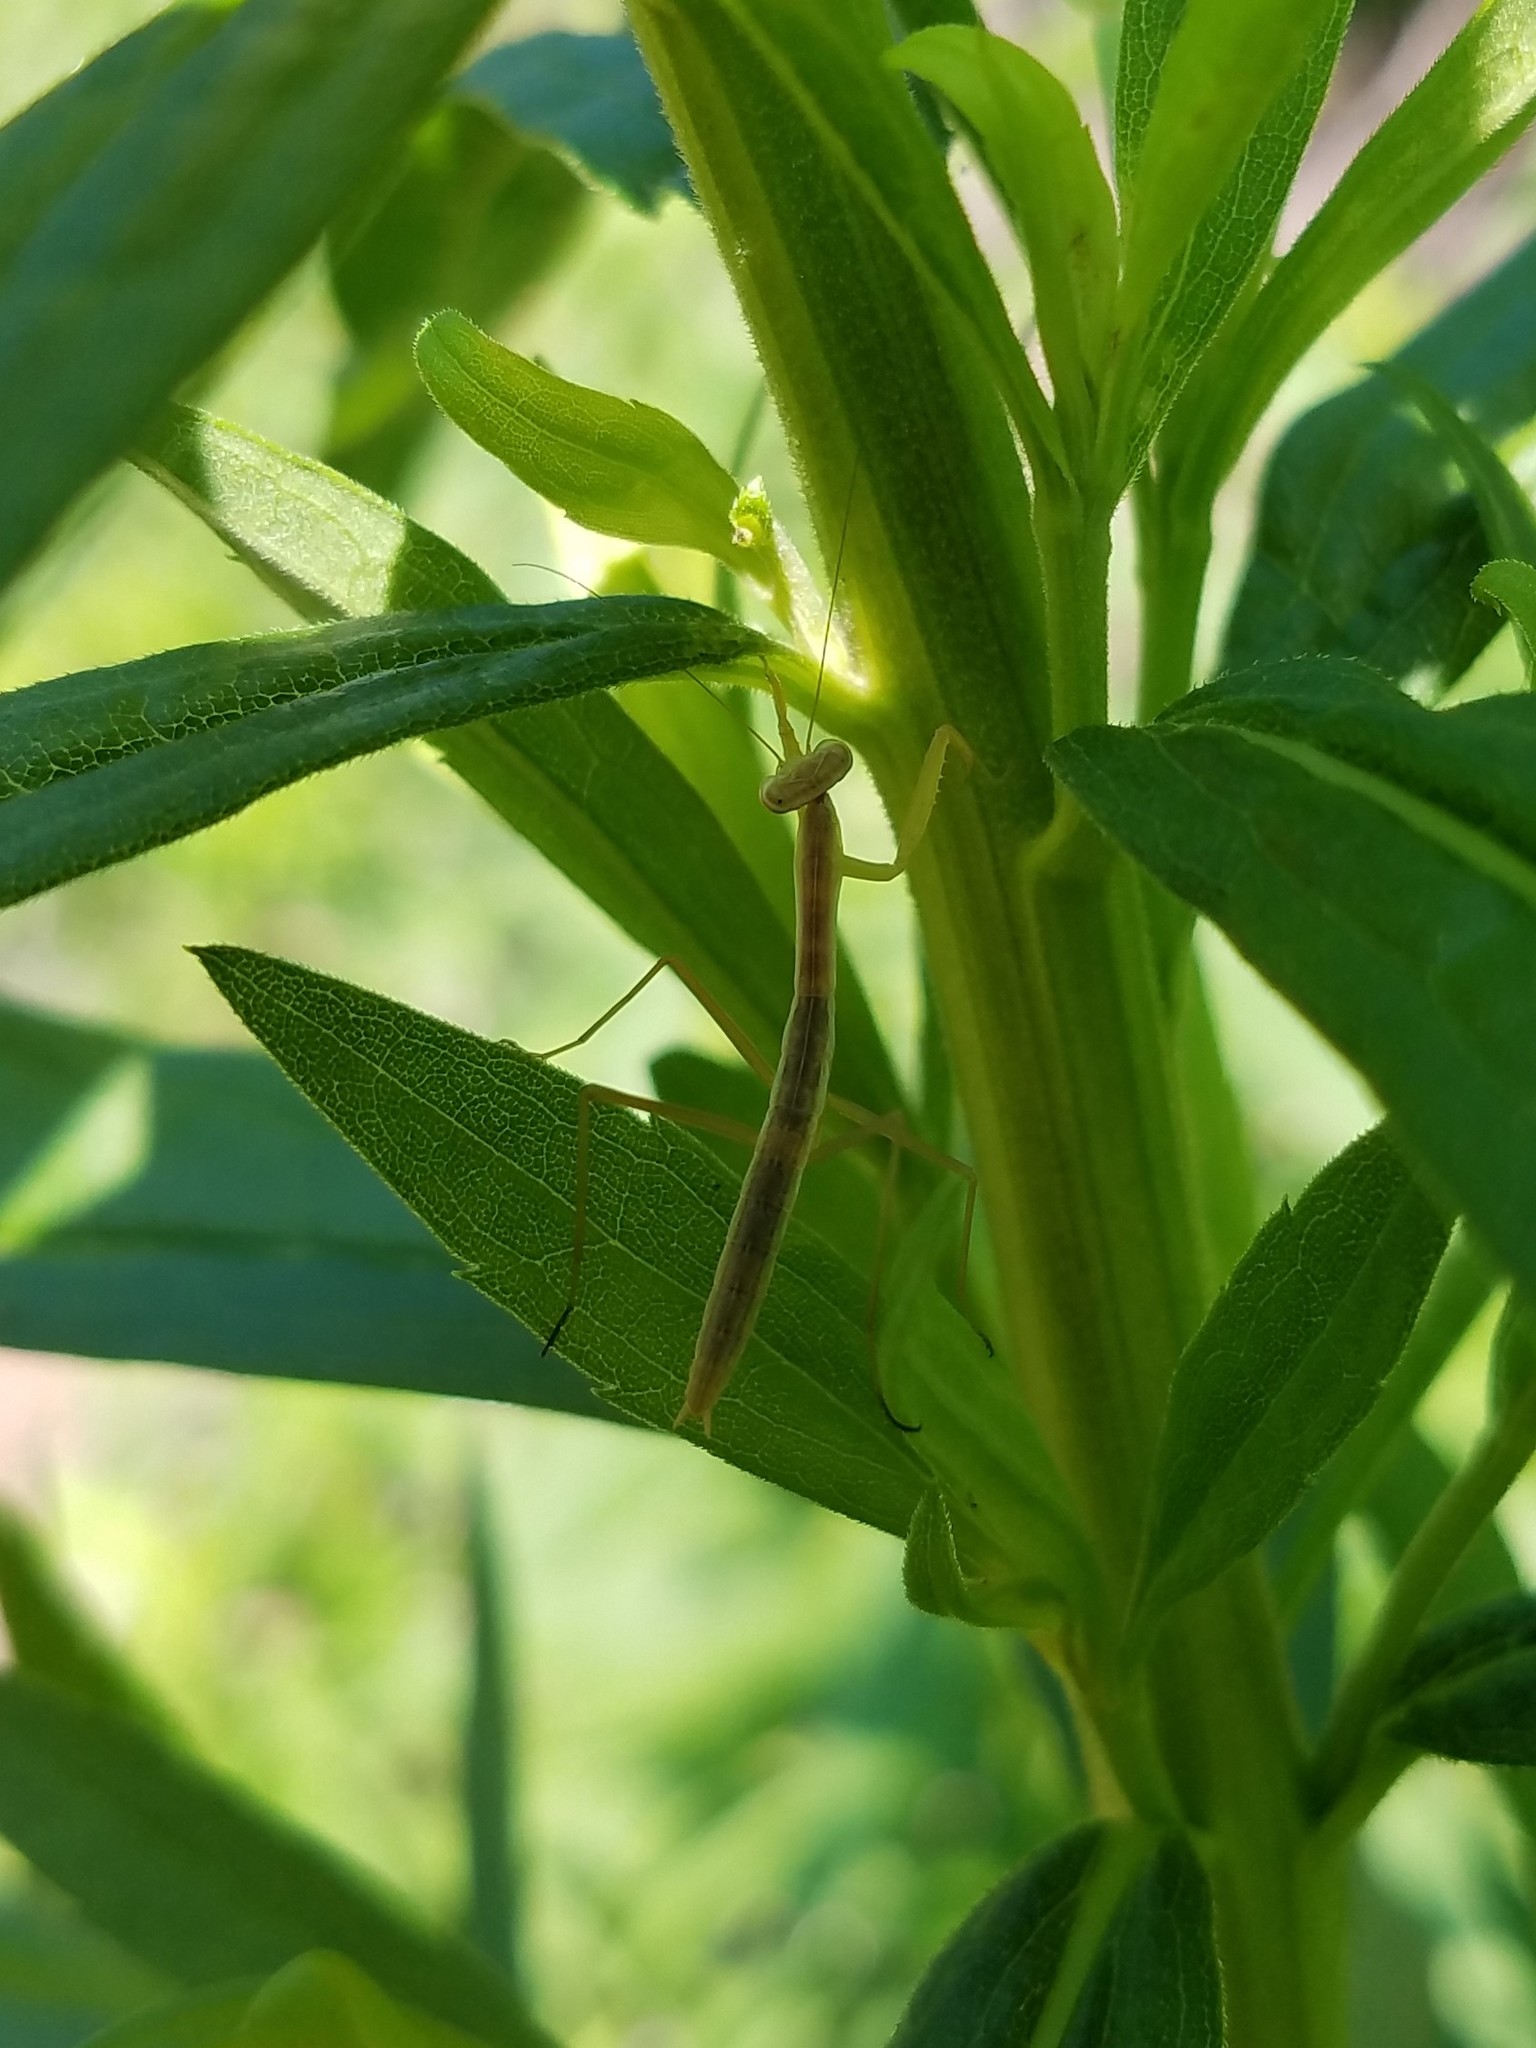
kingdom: Animalia
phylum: Arthropoda
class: Insecta
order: Mantodea
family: Mantidae
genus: Tenodera
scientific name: Tenodera sinensis
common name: Chinese mantis
